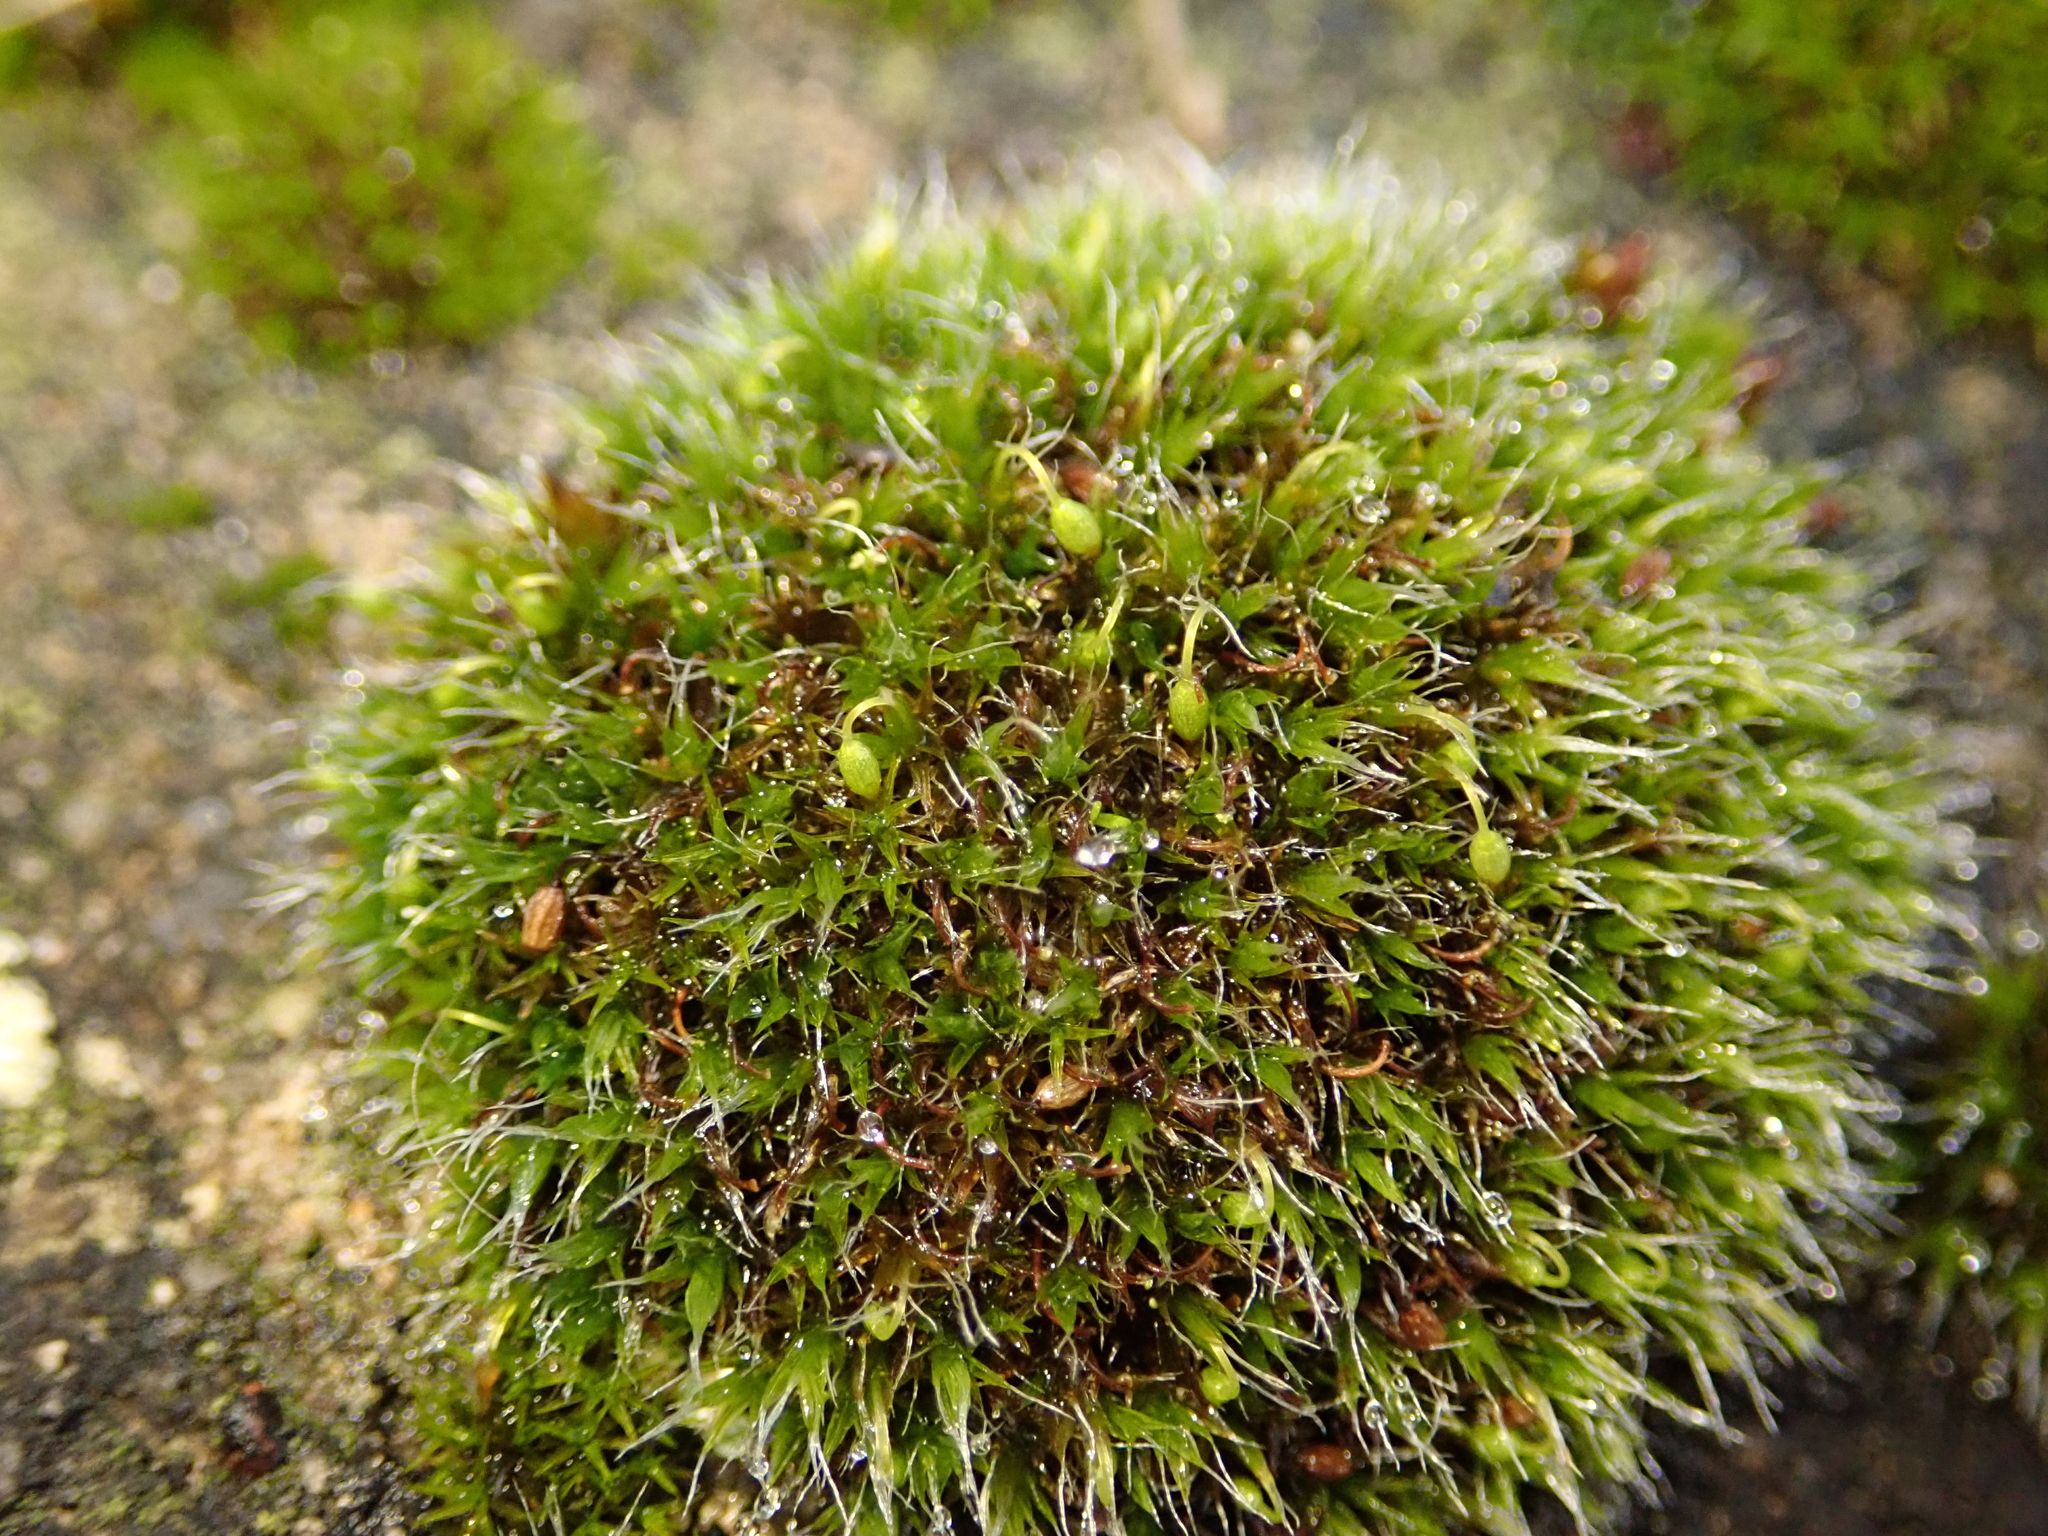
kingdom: Plantae
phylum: Bryophyta
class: Bryopsida
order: Grimmiales
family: Grimmiaceae
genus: Grimmia
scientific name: Grimmia pulvinata
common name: Grey-cushioned grimmia
